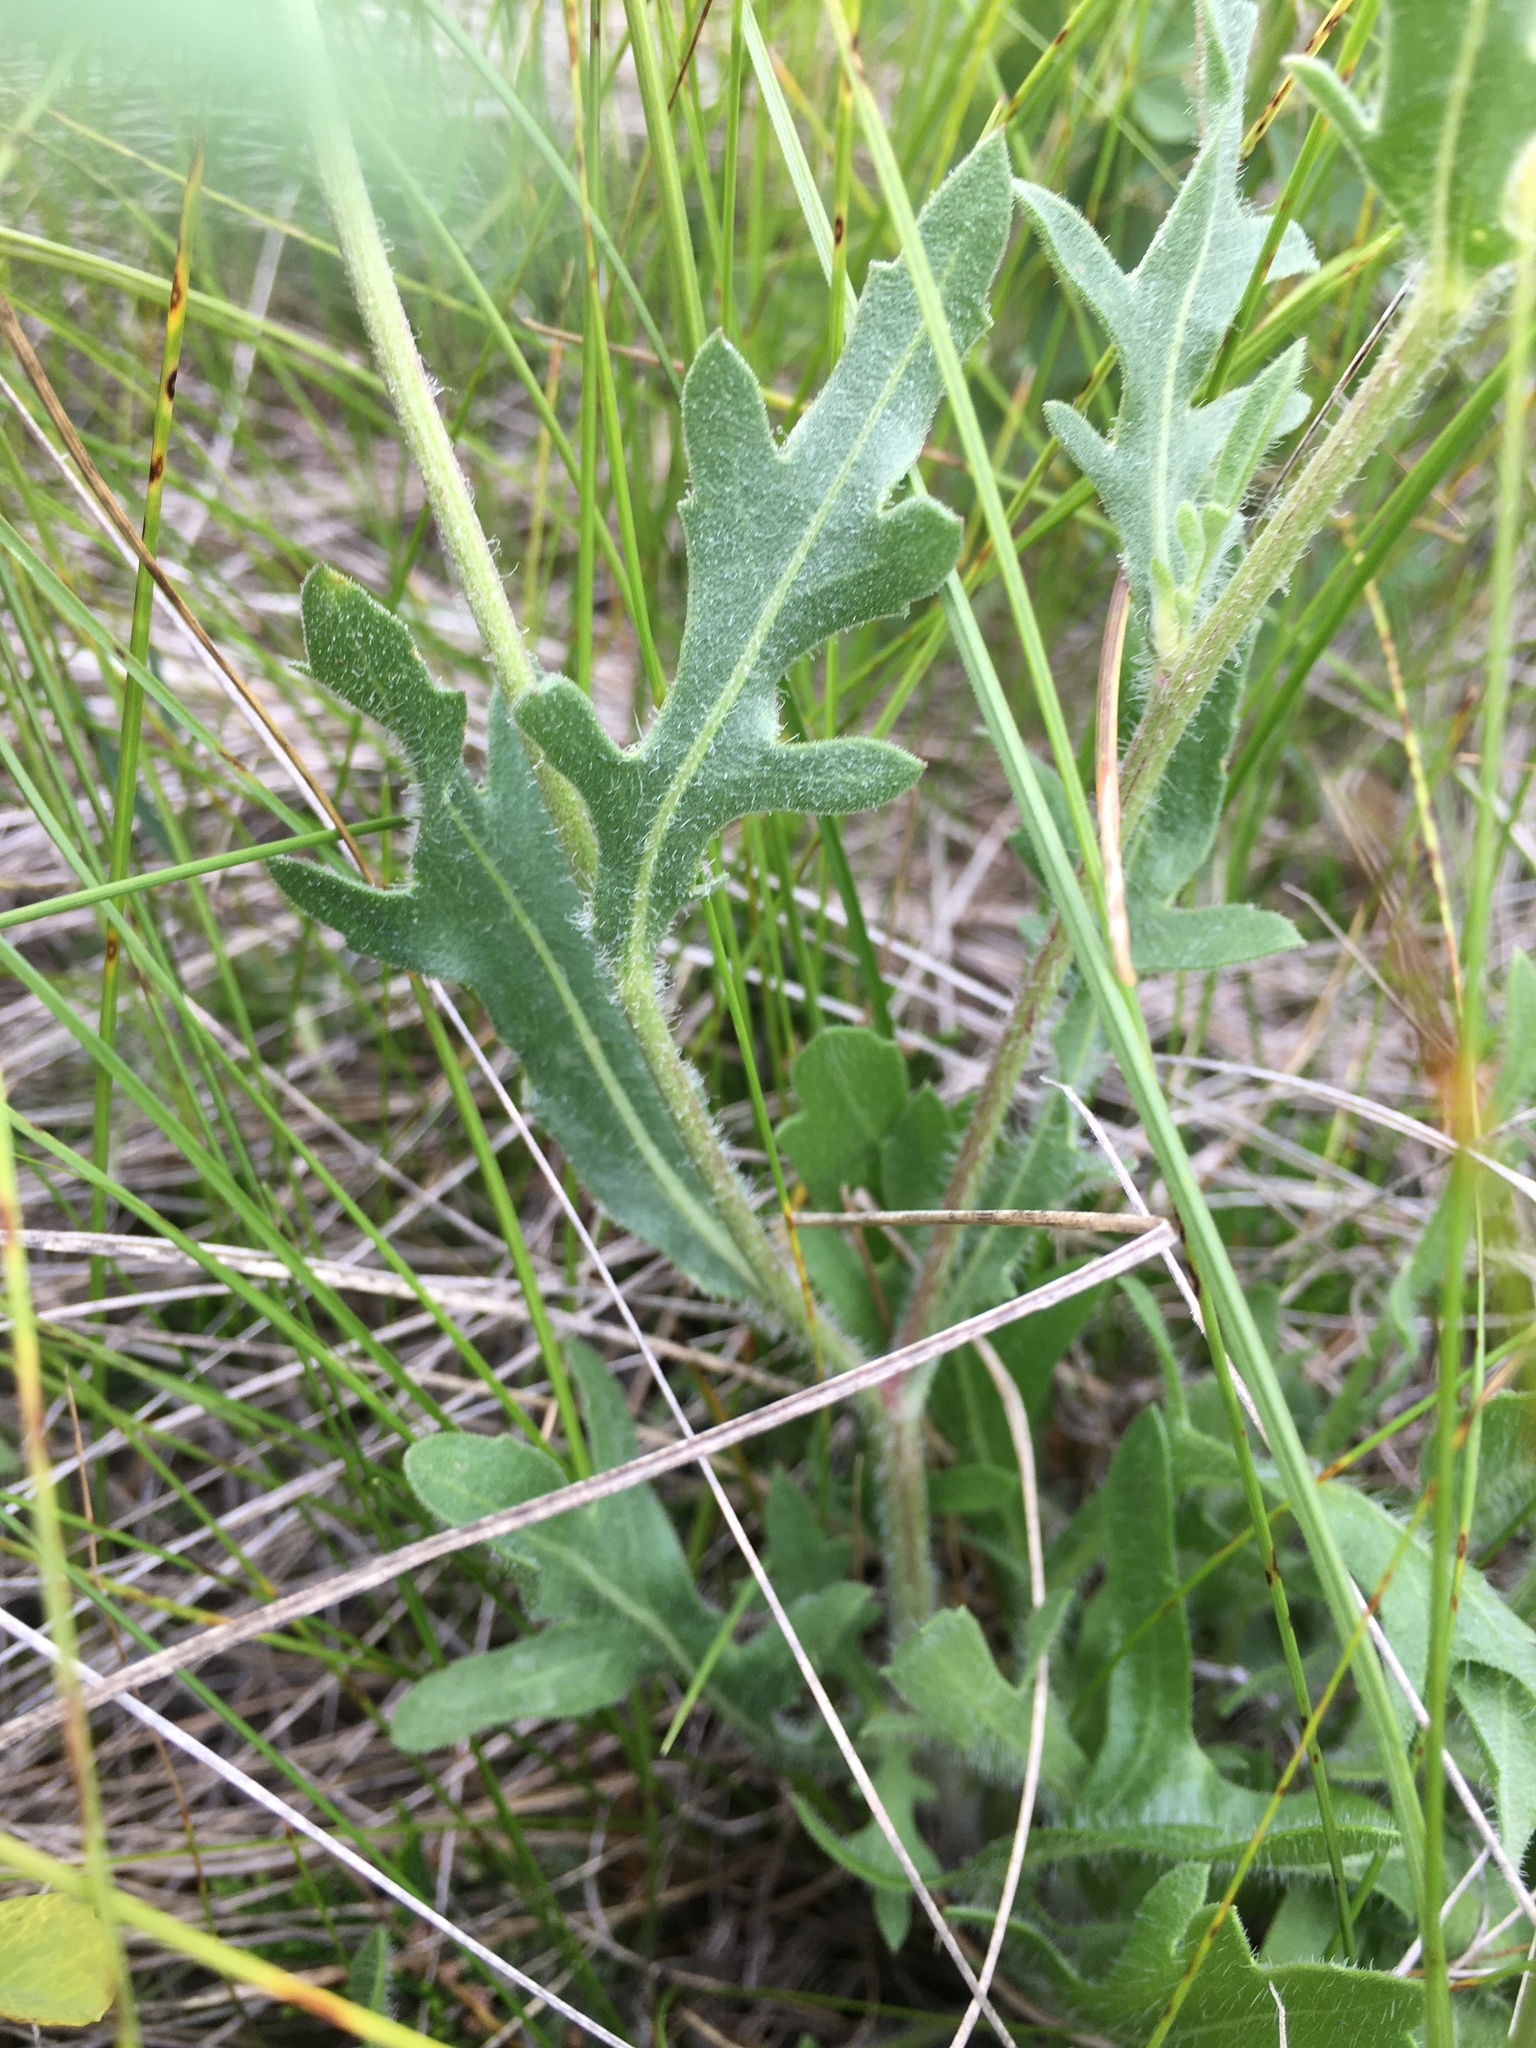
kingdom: Plantae
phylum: Tracheophyta
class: Magnoliopsida
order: Asterales
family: Asteraceae
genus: Gaillardia
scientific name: Gaillardia aristata
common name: Blanket-flower
